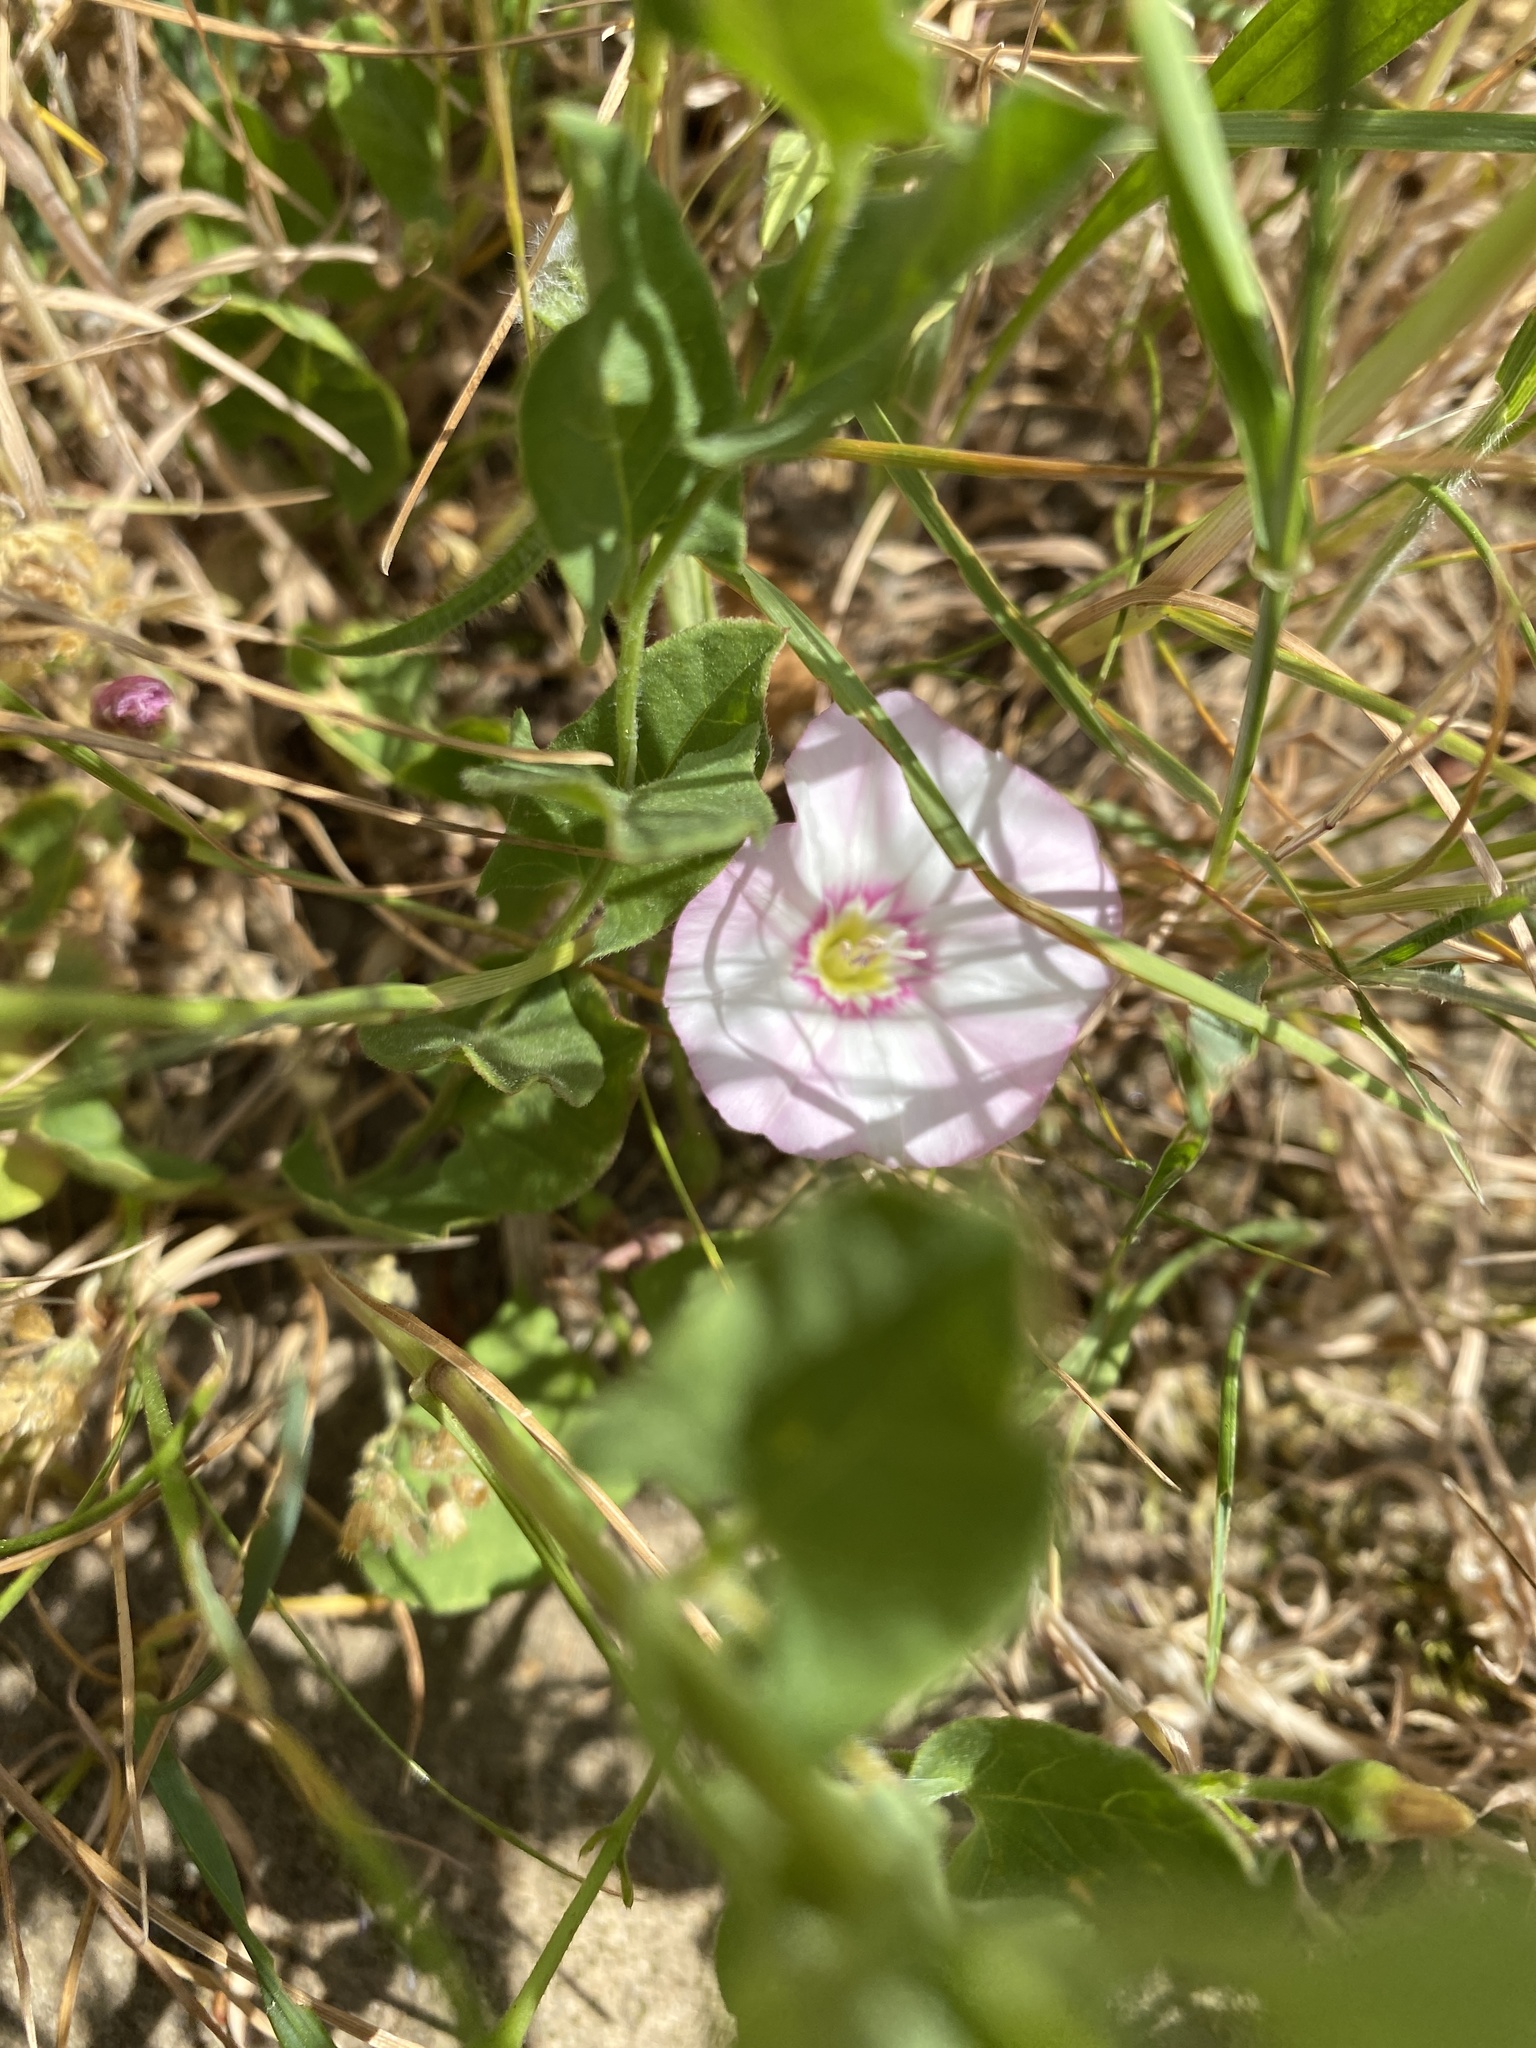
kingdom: Plantae
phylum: Tracheophyta
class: Magnoliopsida
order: Solanales
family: Convolvulaceae
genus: Convolvulus
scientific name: Convolvulus arvensis
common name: Field bindweed
